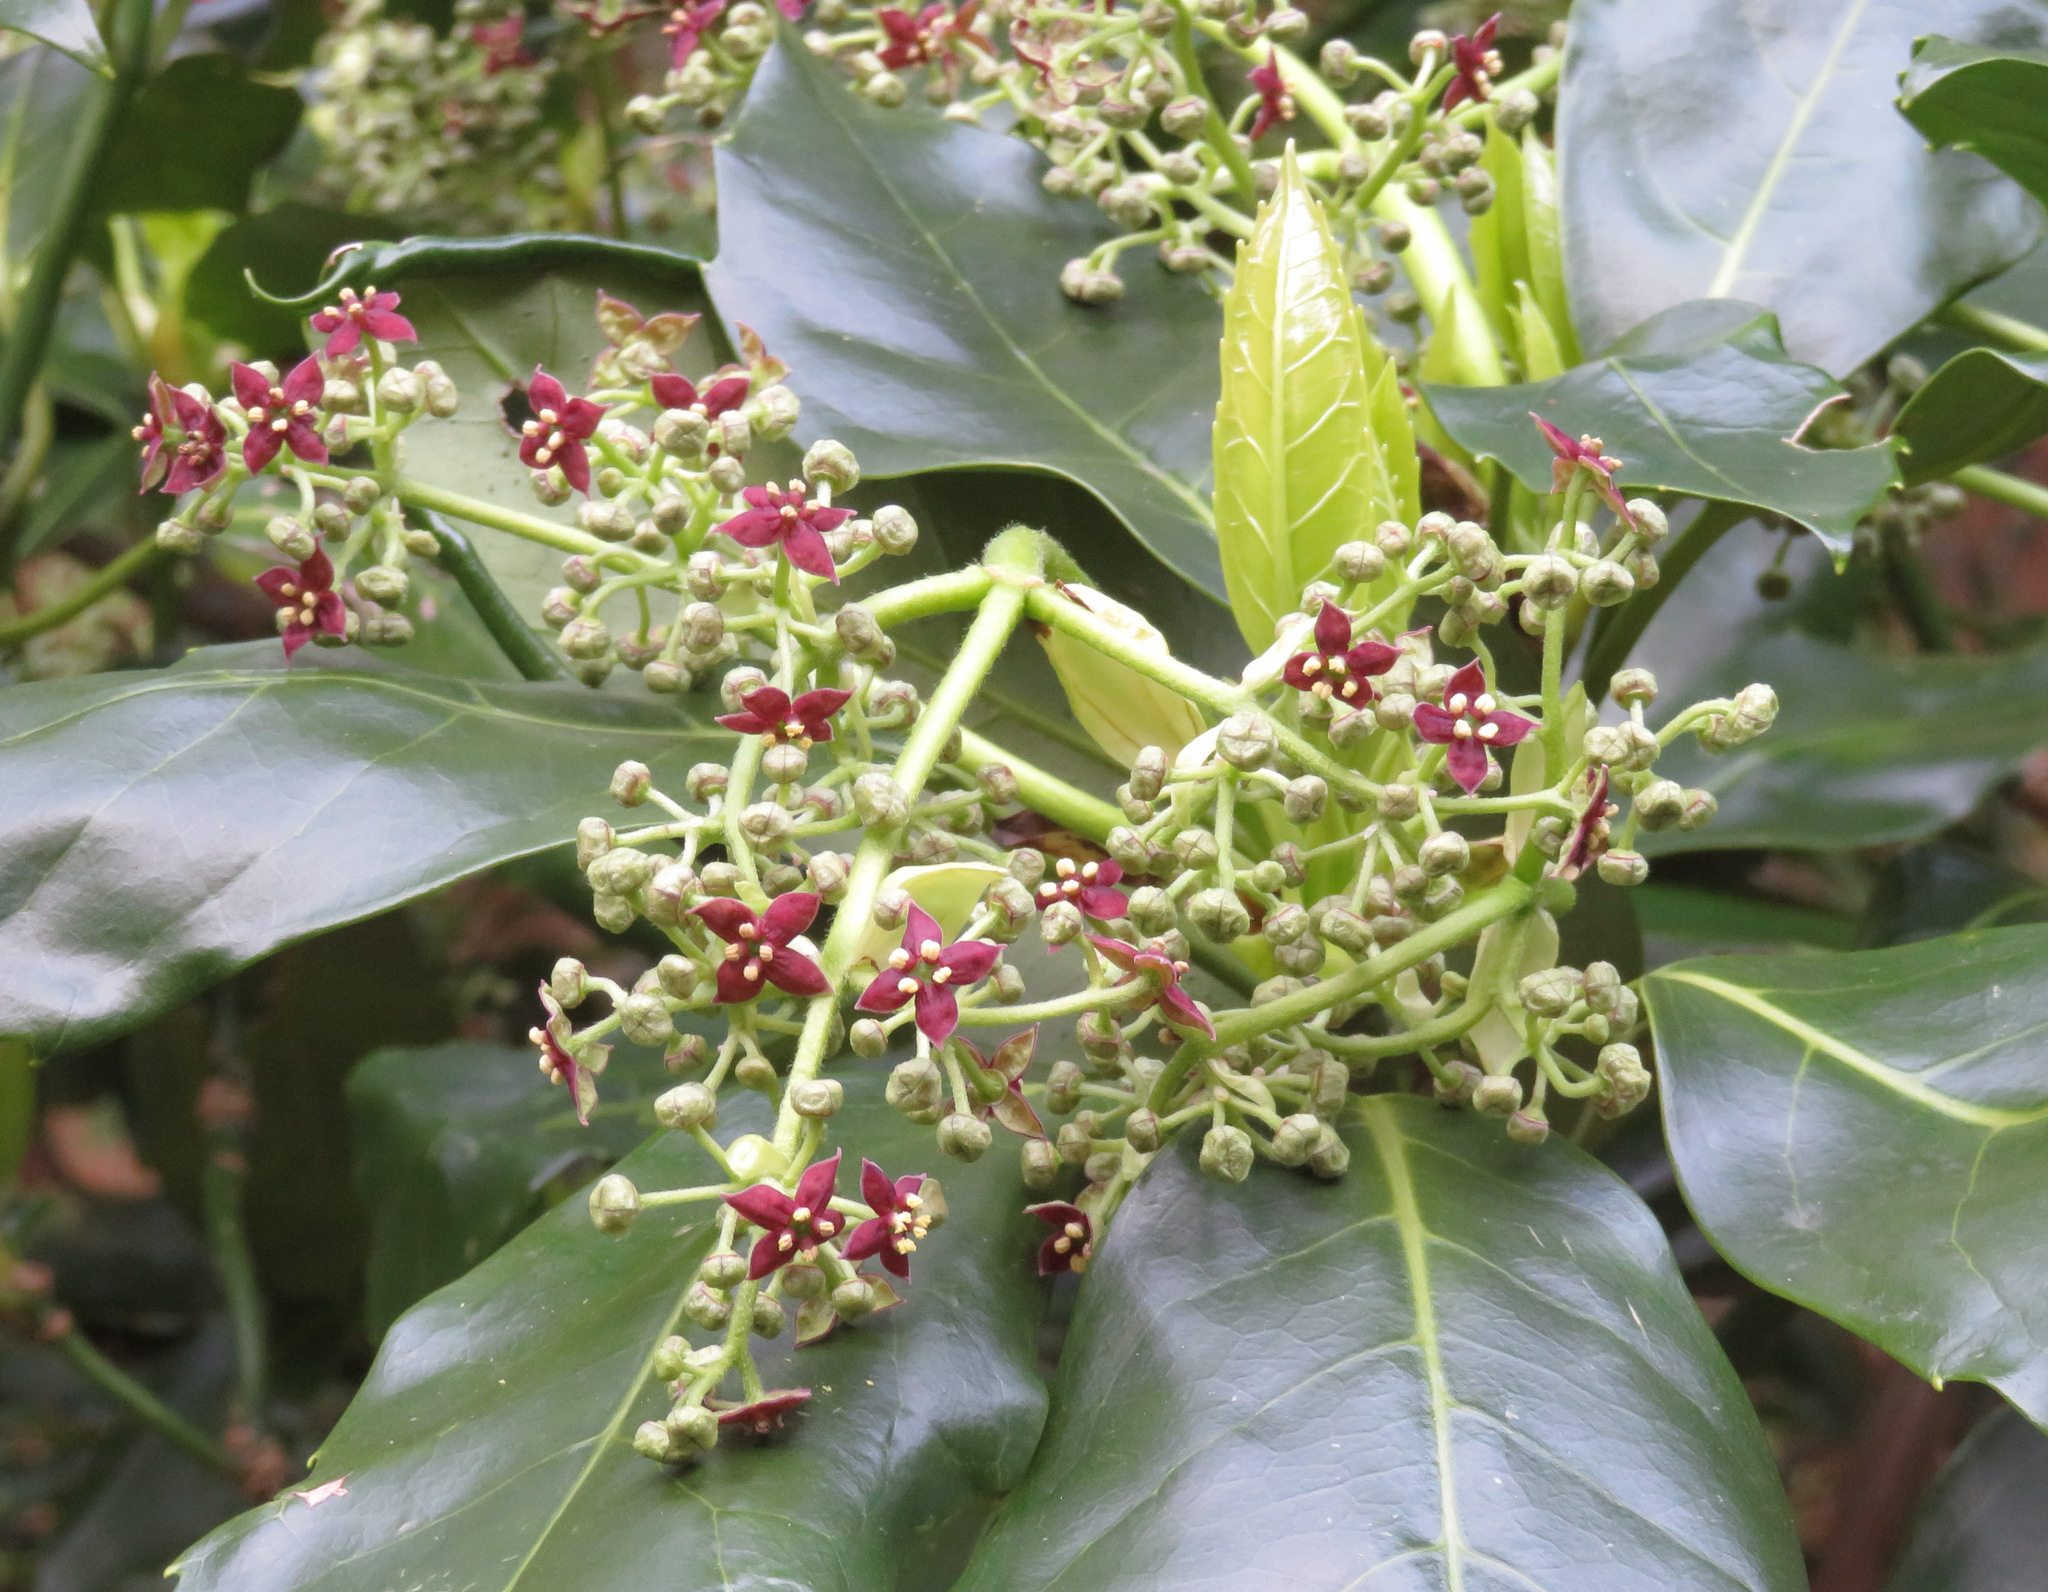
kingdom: Plantae
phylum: Tracheophyta
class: Magnoliopsida
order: Garryales
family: Garryaceae
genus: Aucuba
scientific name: Aucuba japonica
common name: Spotted-laurel
